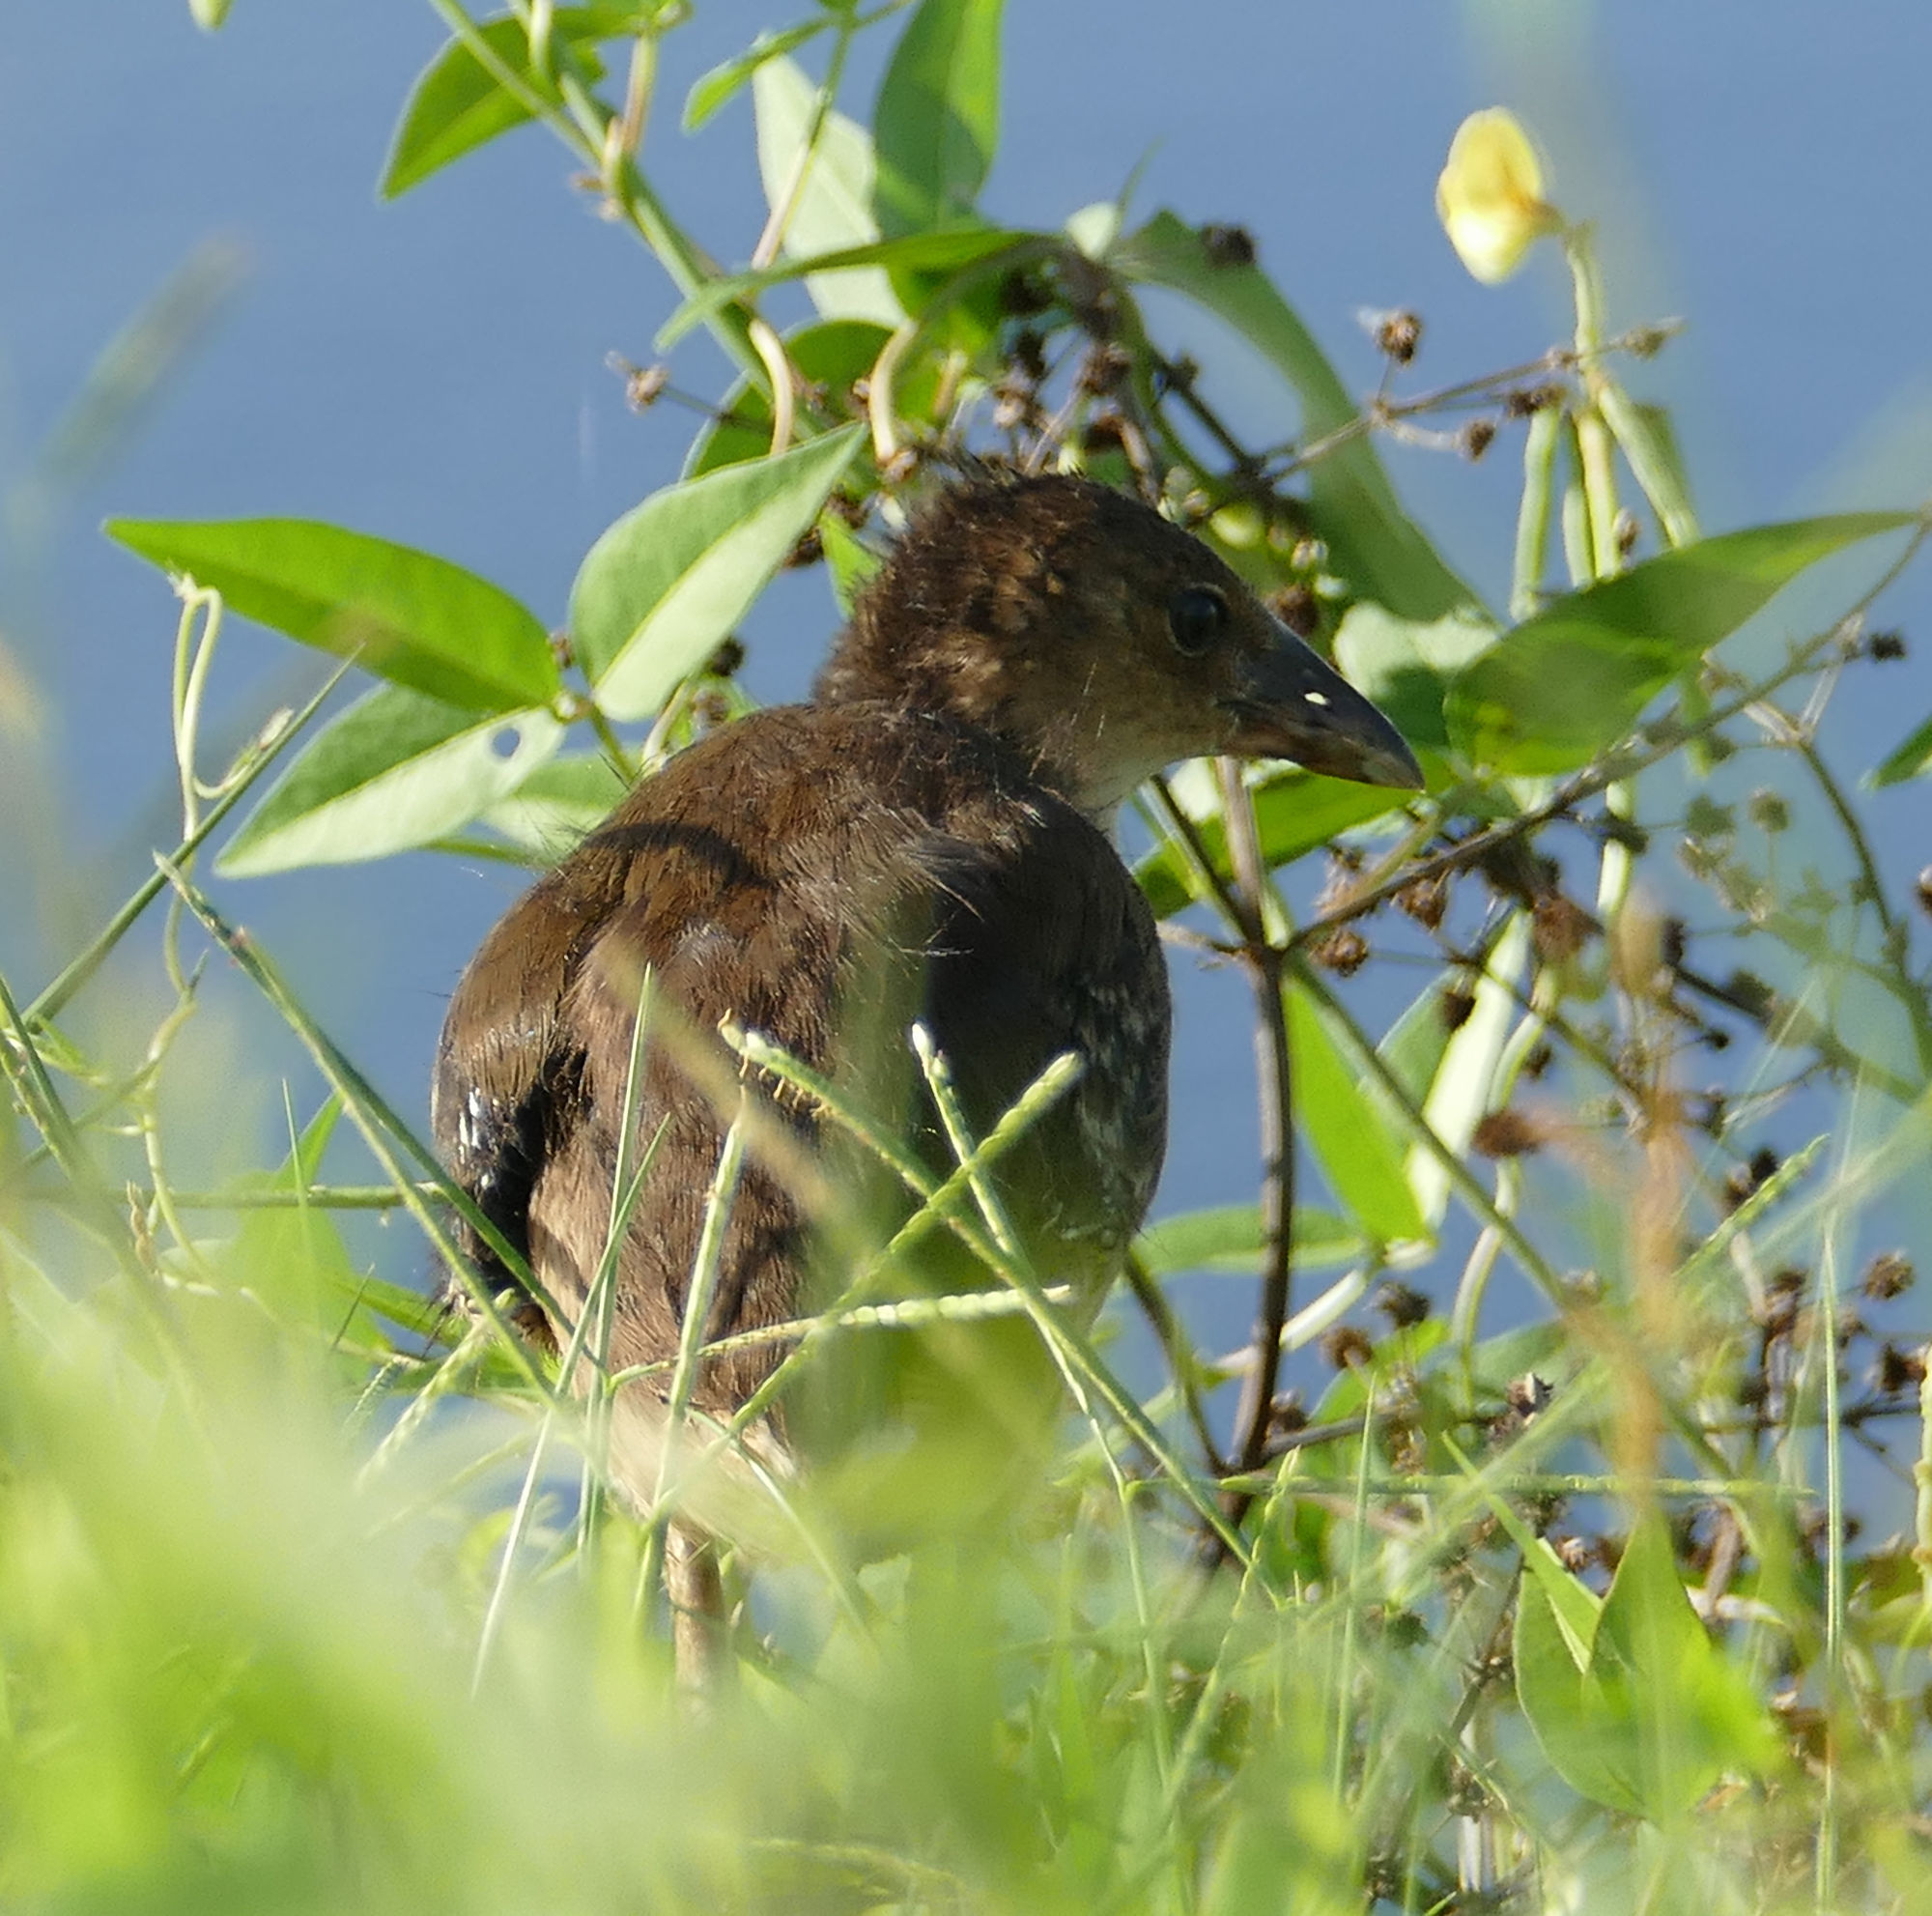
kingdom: Animalia
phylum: Chordata
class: Aves
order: Gruiformes
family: Rallidae
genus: Porphyrio
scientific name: Porphyrio martinica
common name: Purple gallinule
